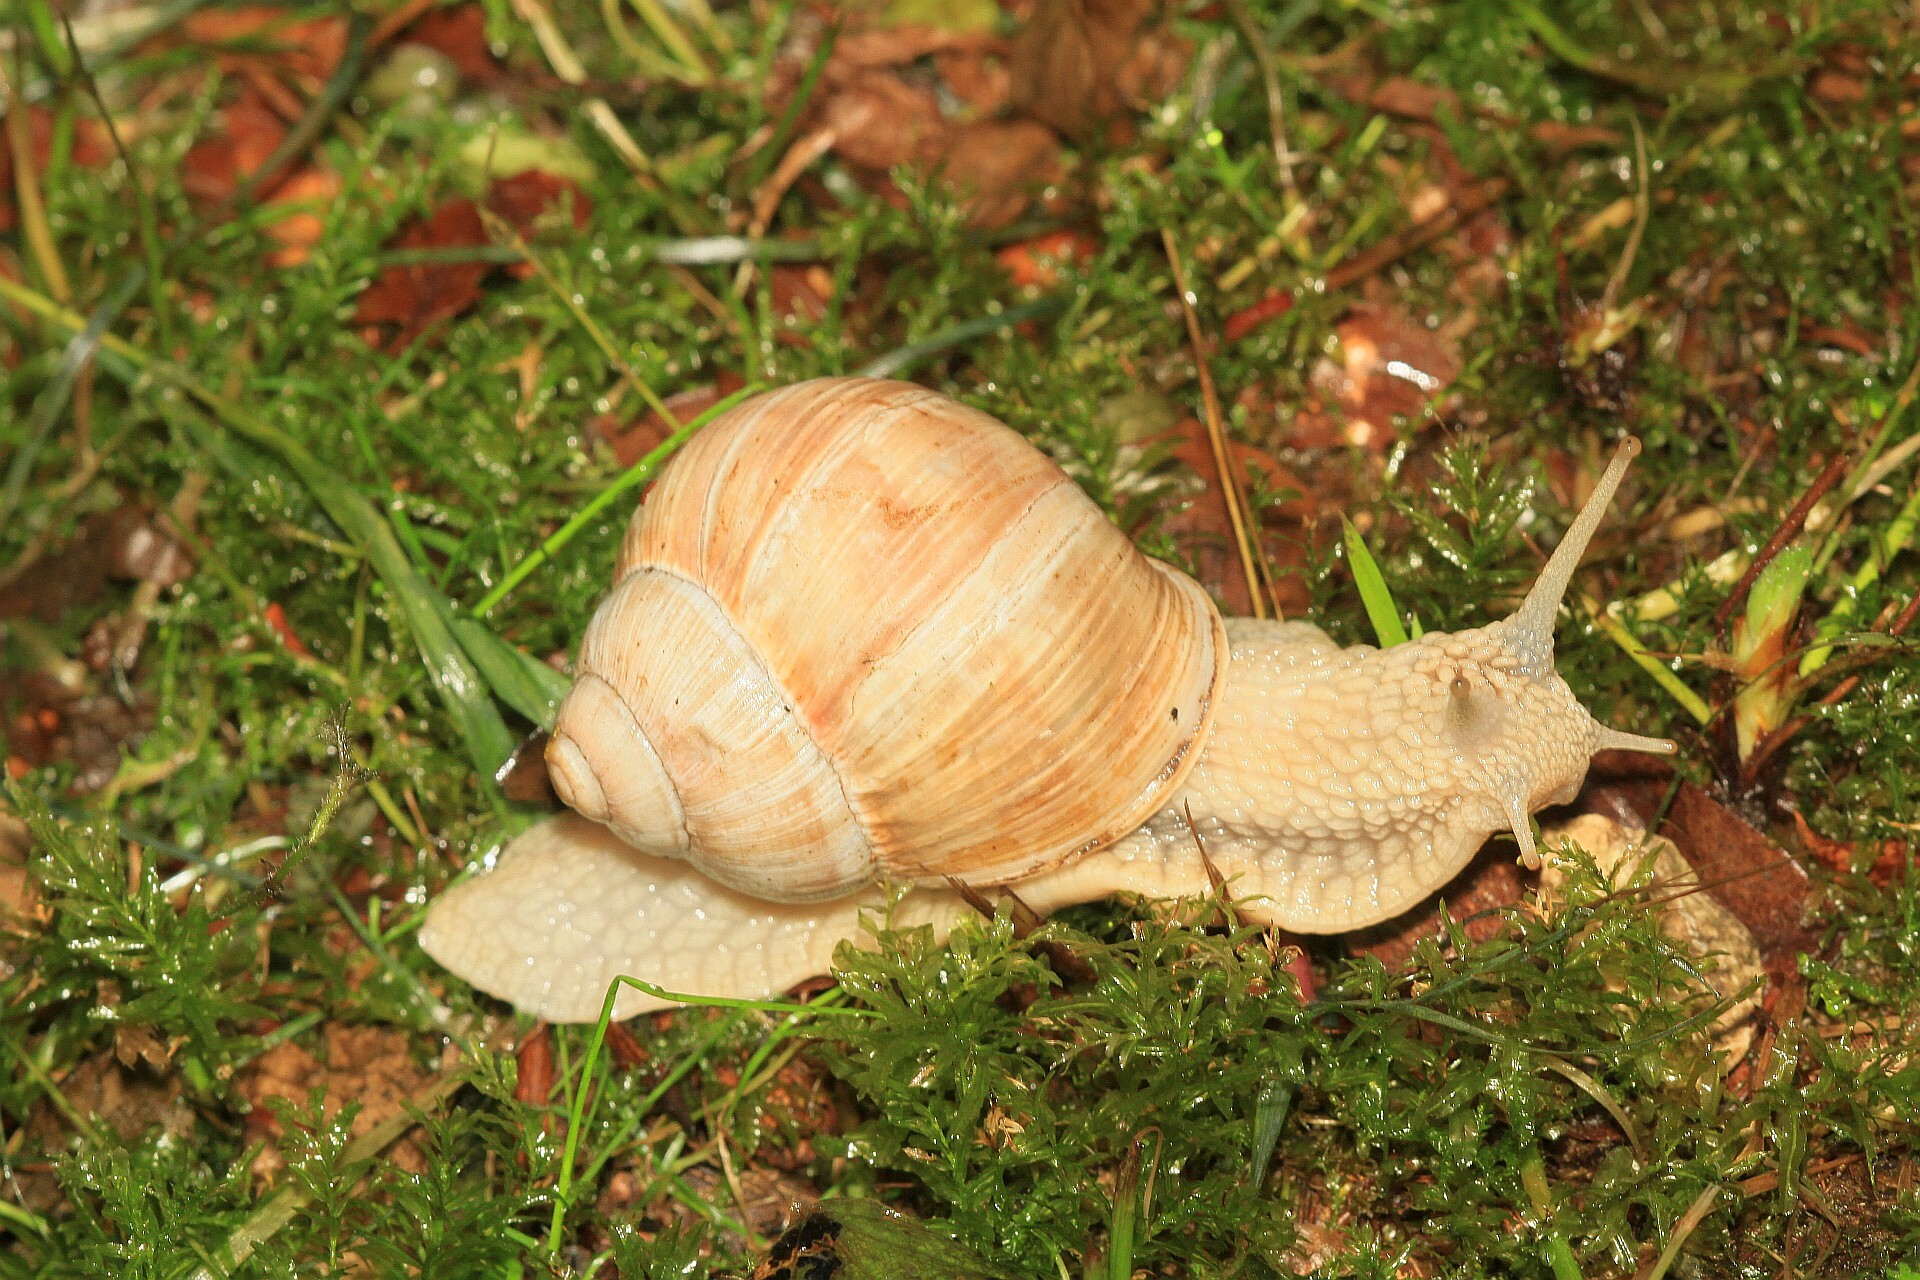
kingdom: Animalia
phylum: Mollusca
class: Gastropoda
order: Stylommatophora
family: Helicidae
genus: Helix
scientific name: Helix pomatia
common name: Roman snail
